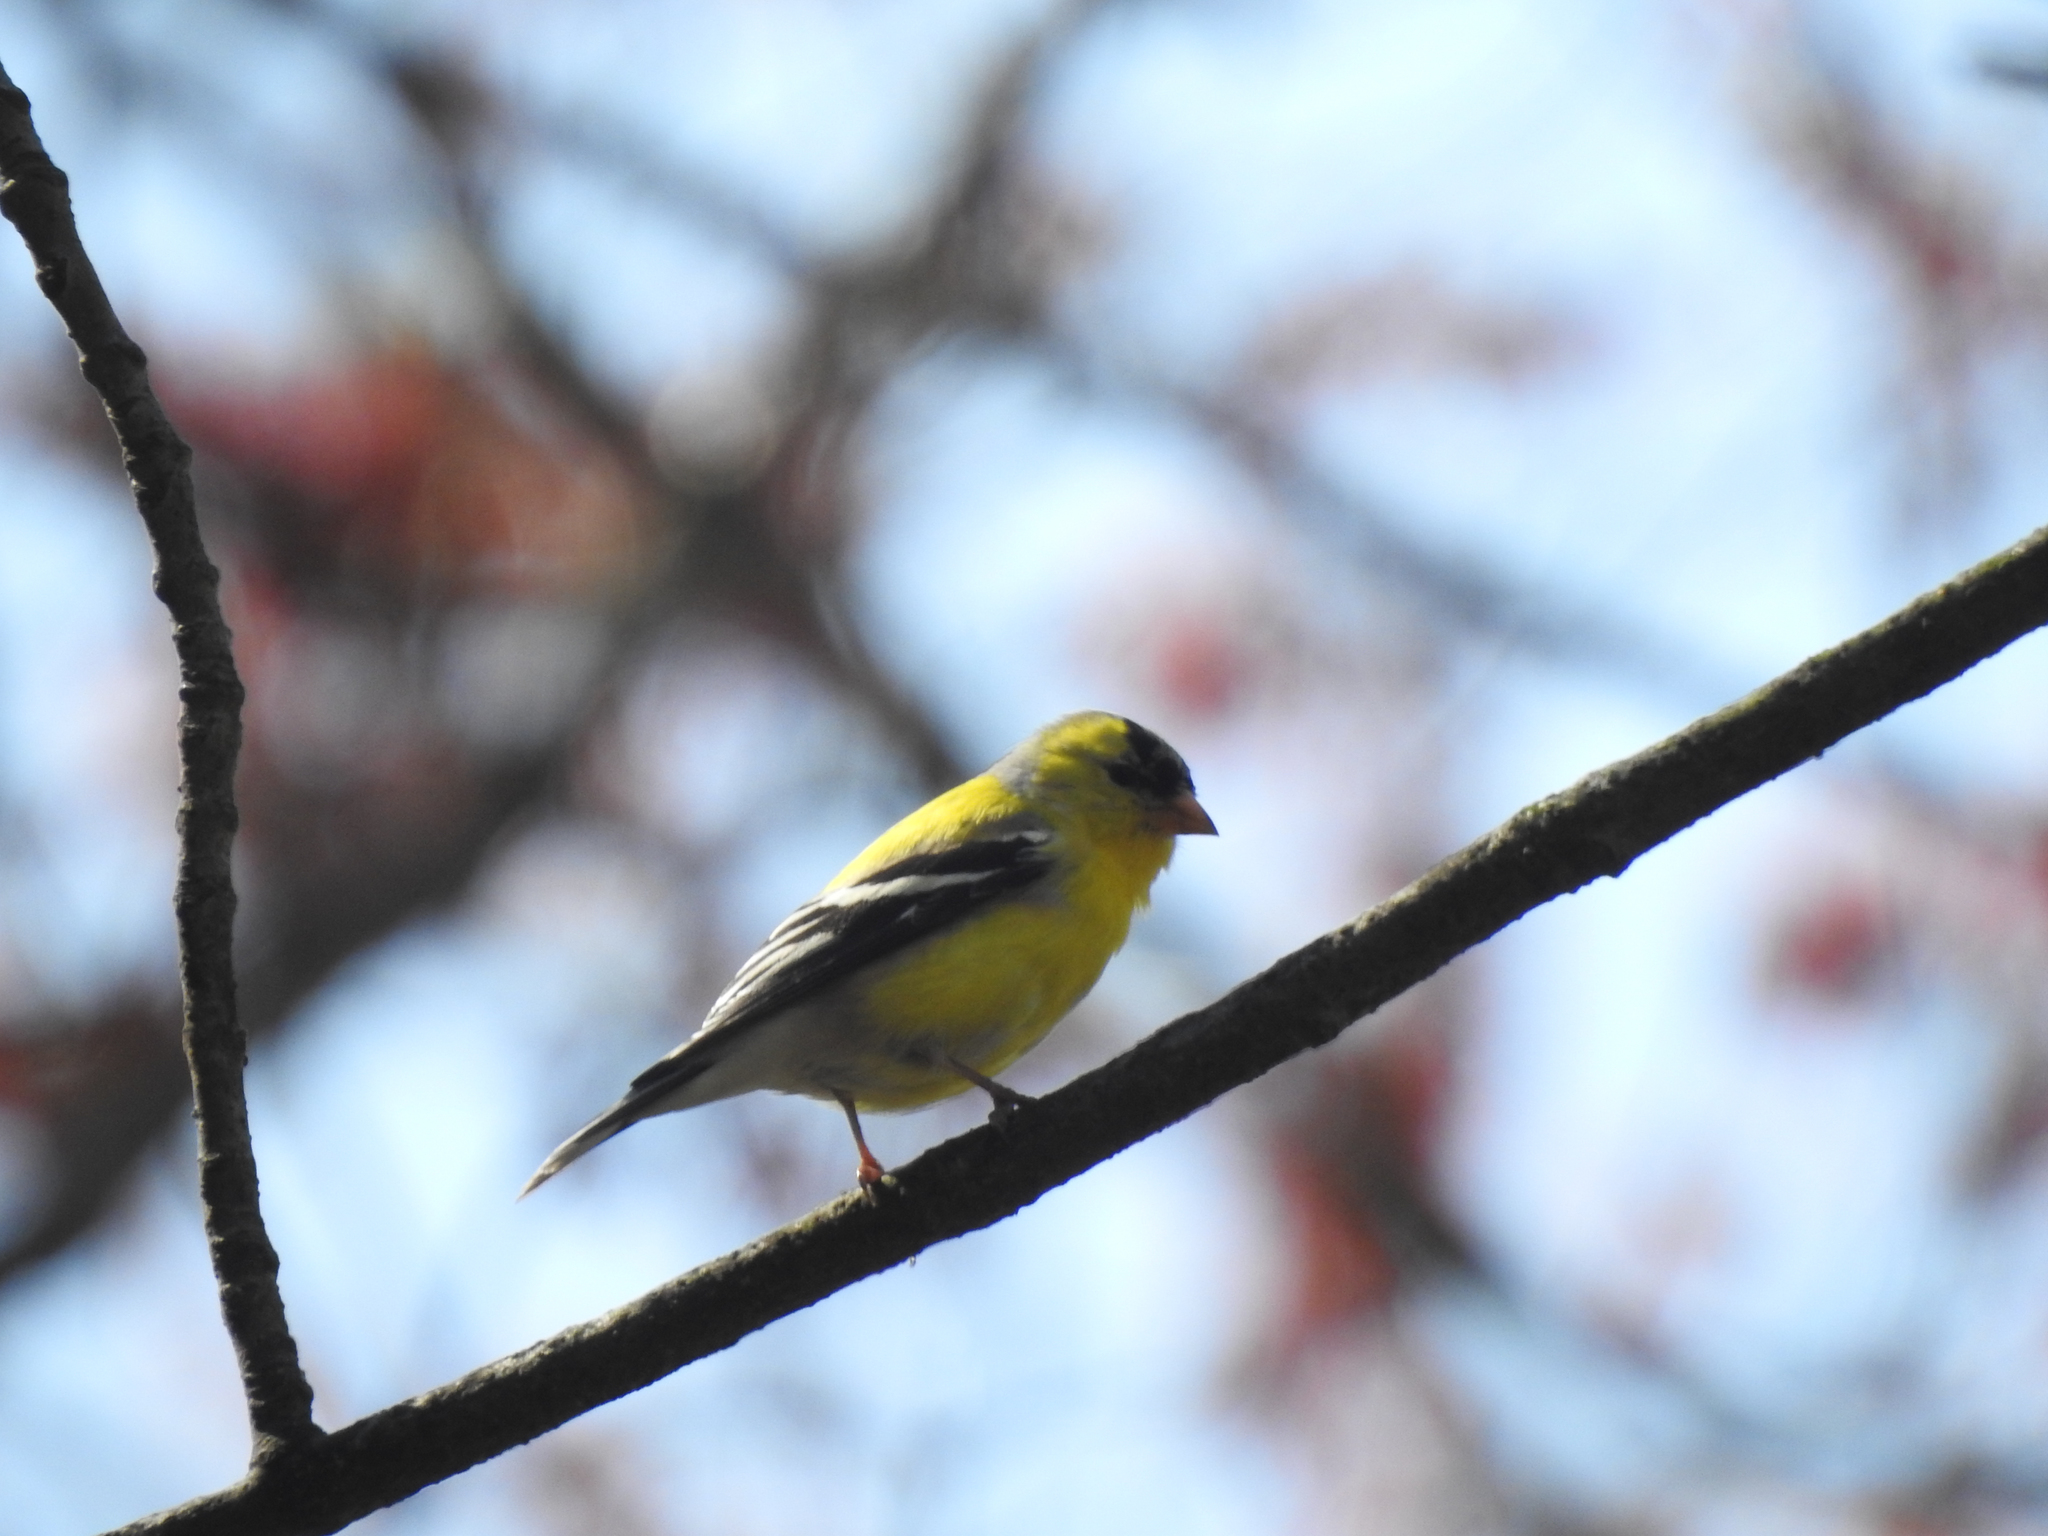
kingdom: Animalia
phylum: Chordata
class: Aves
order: Passeriformes
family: Fringillidae
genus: Spinus
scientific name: Spinus tristis
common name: American goldfinch
